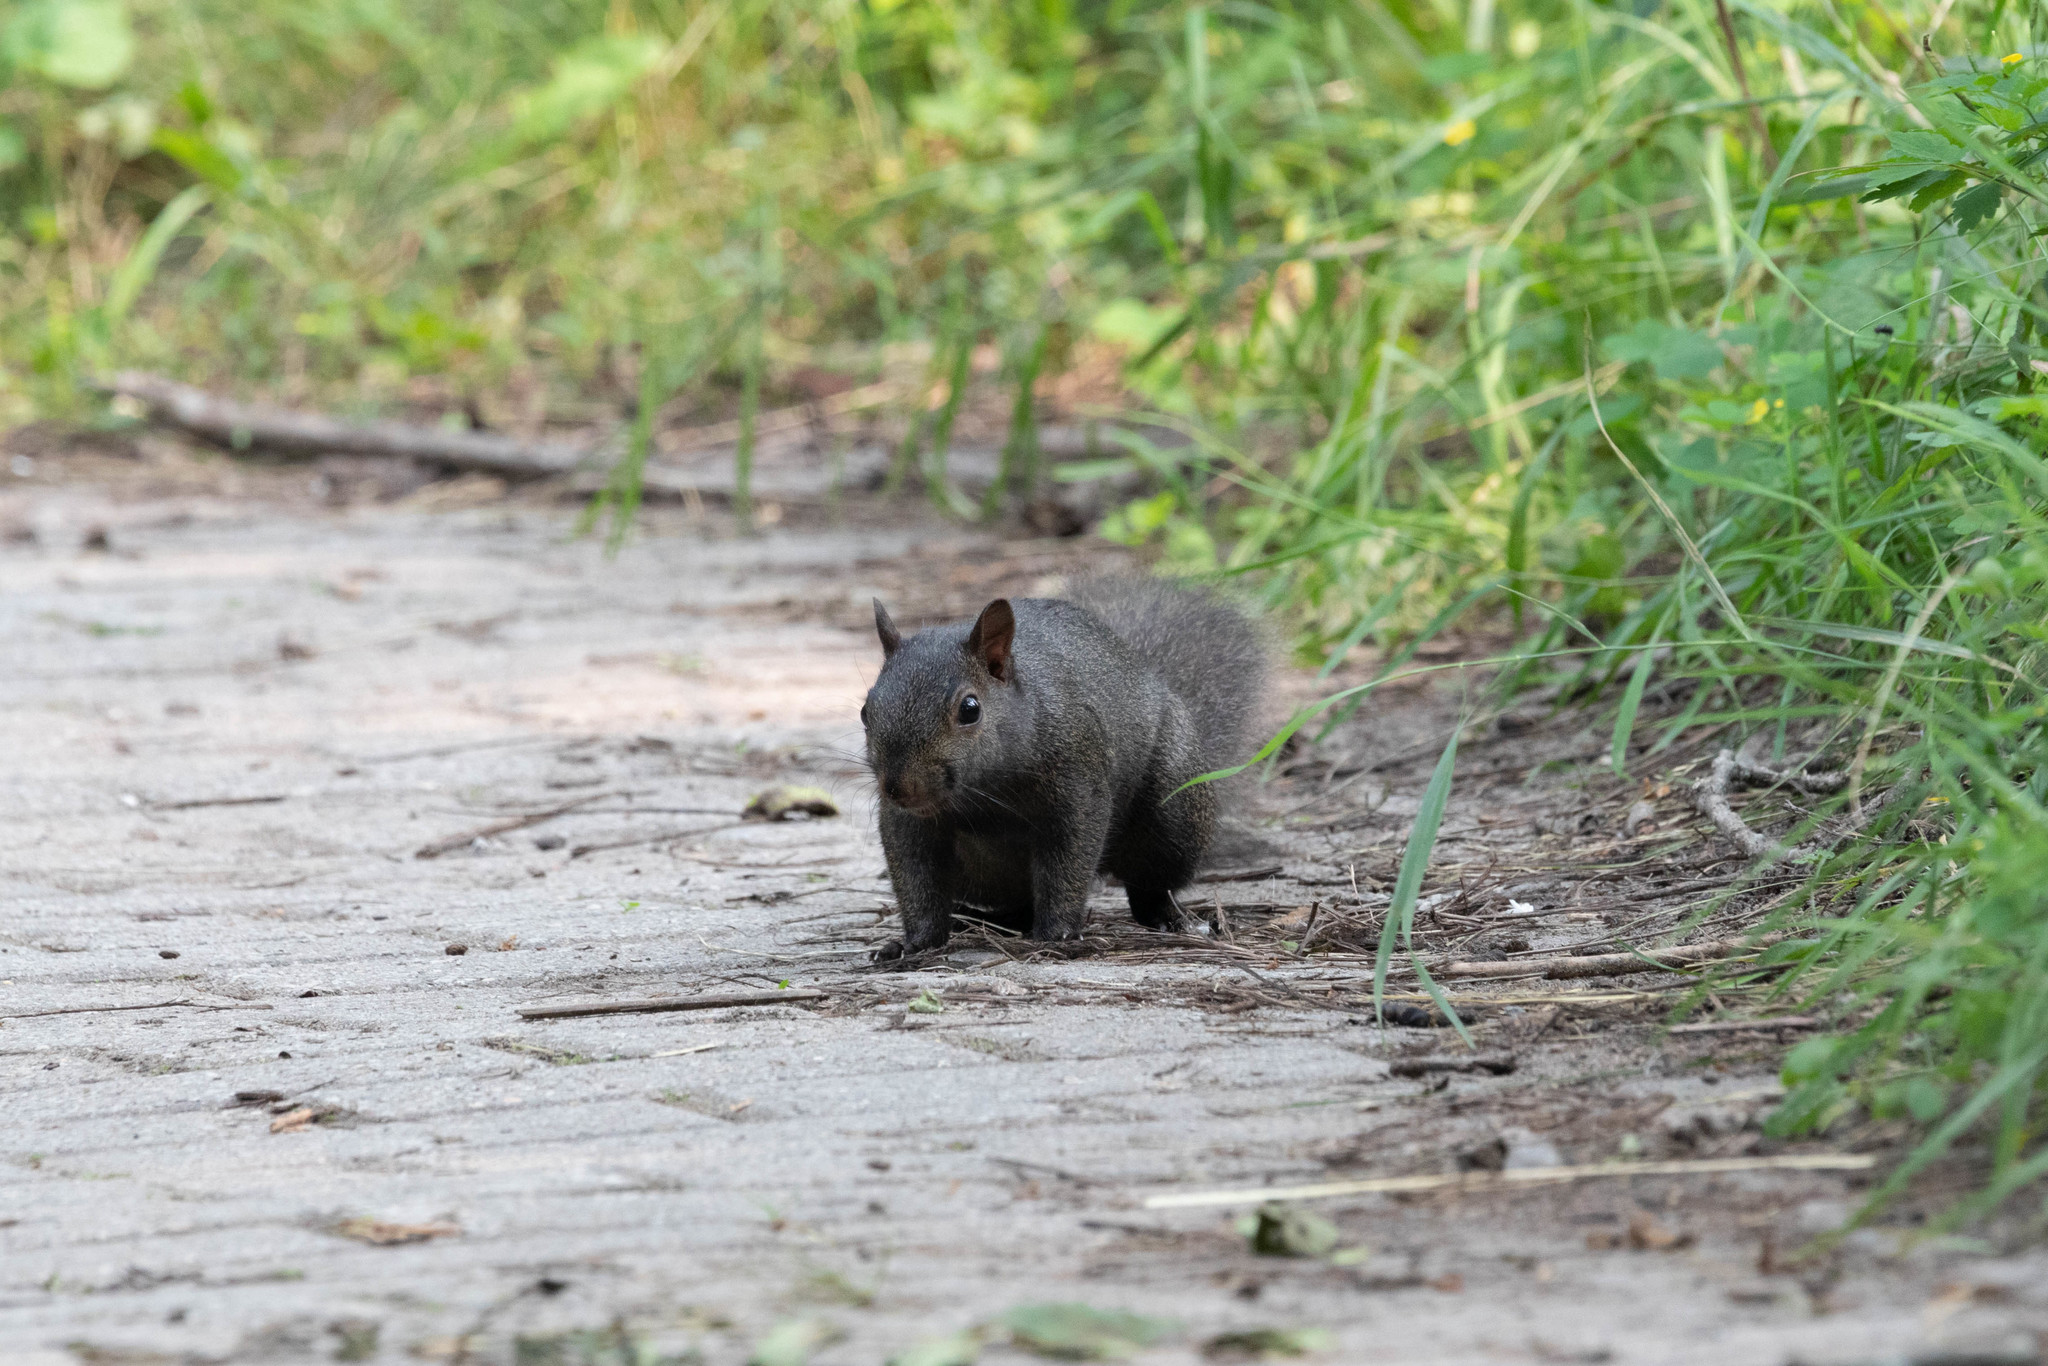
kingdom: Animalia
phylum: Chordata
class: Mammalia
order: Rodentia
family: Sciuridae
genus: Sciurus
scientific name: Sciurus carolinensis
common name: Eastern gray squirrel
